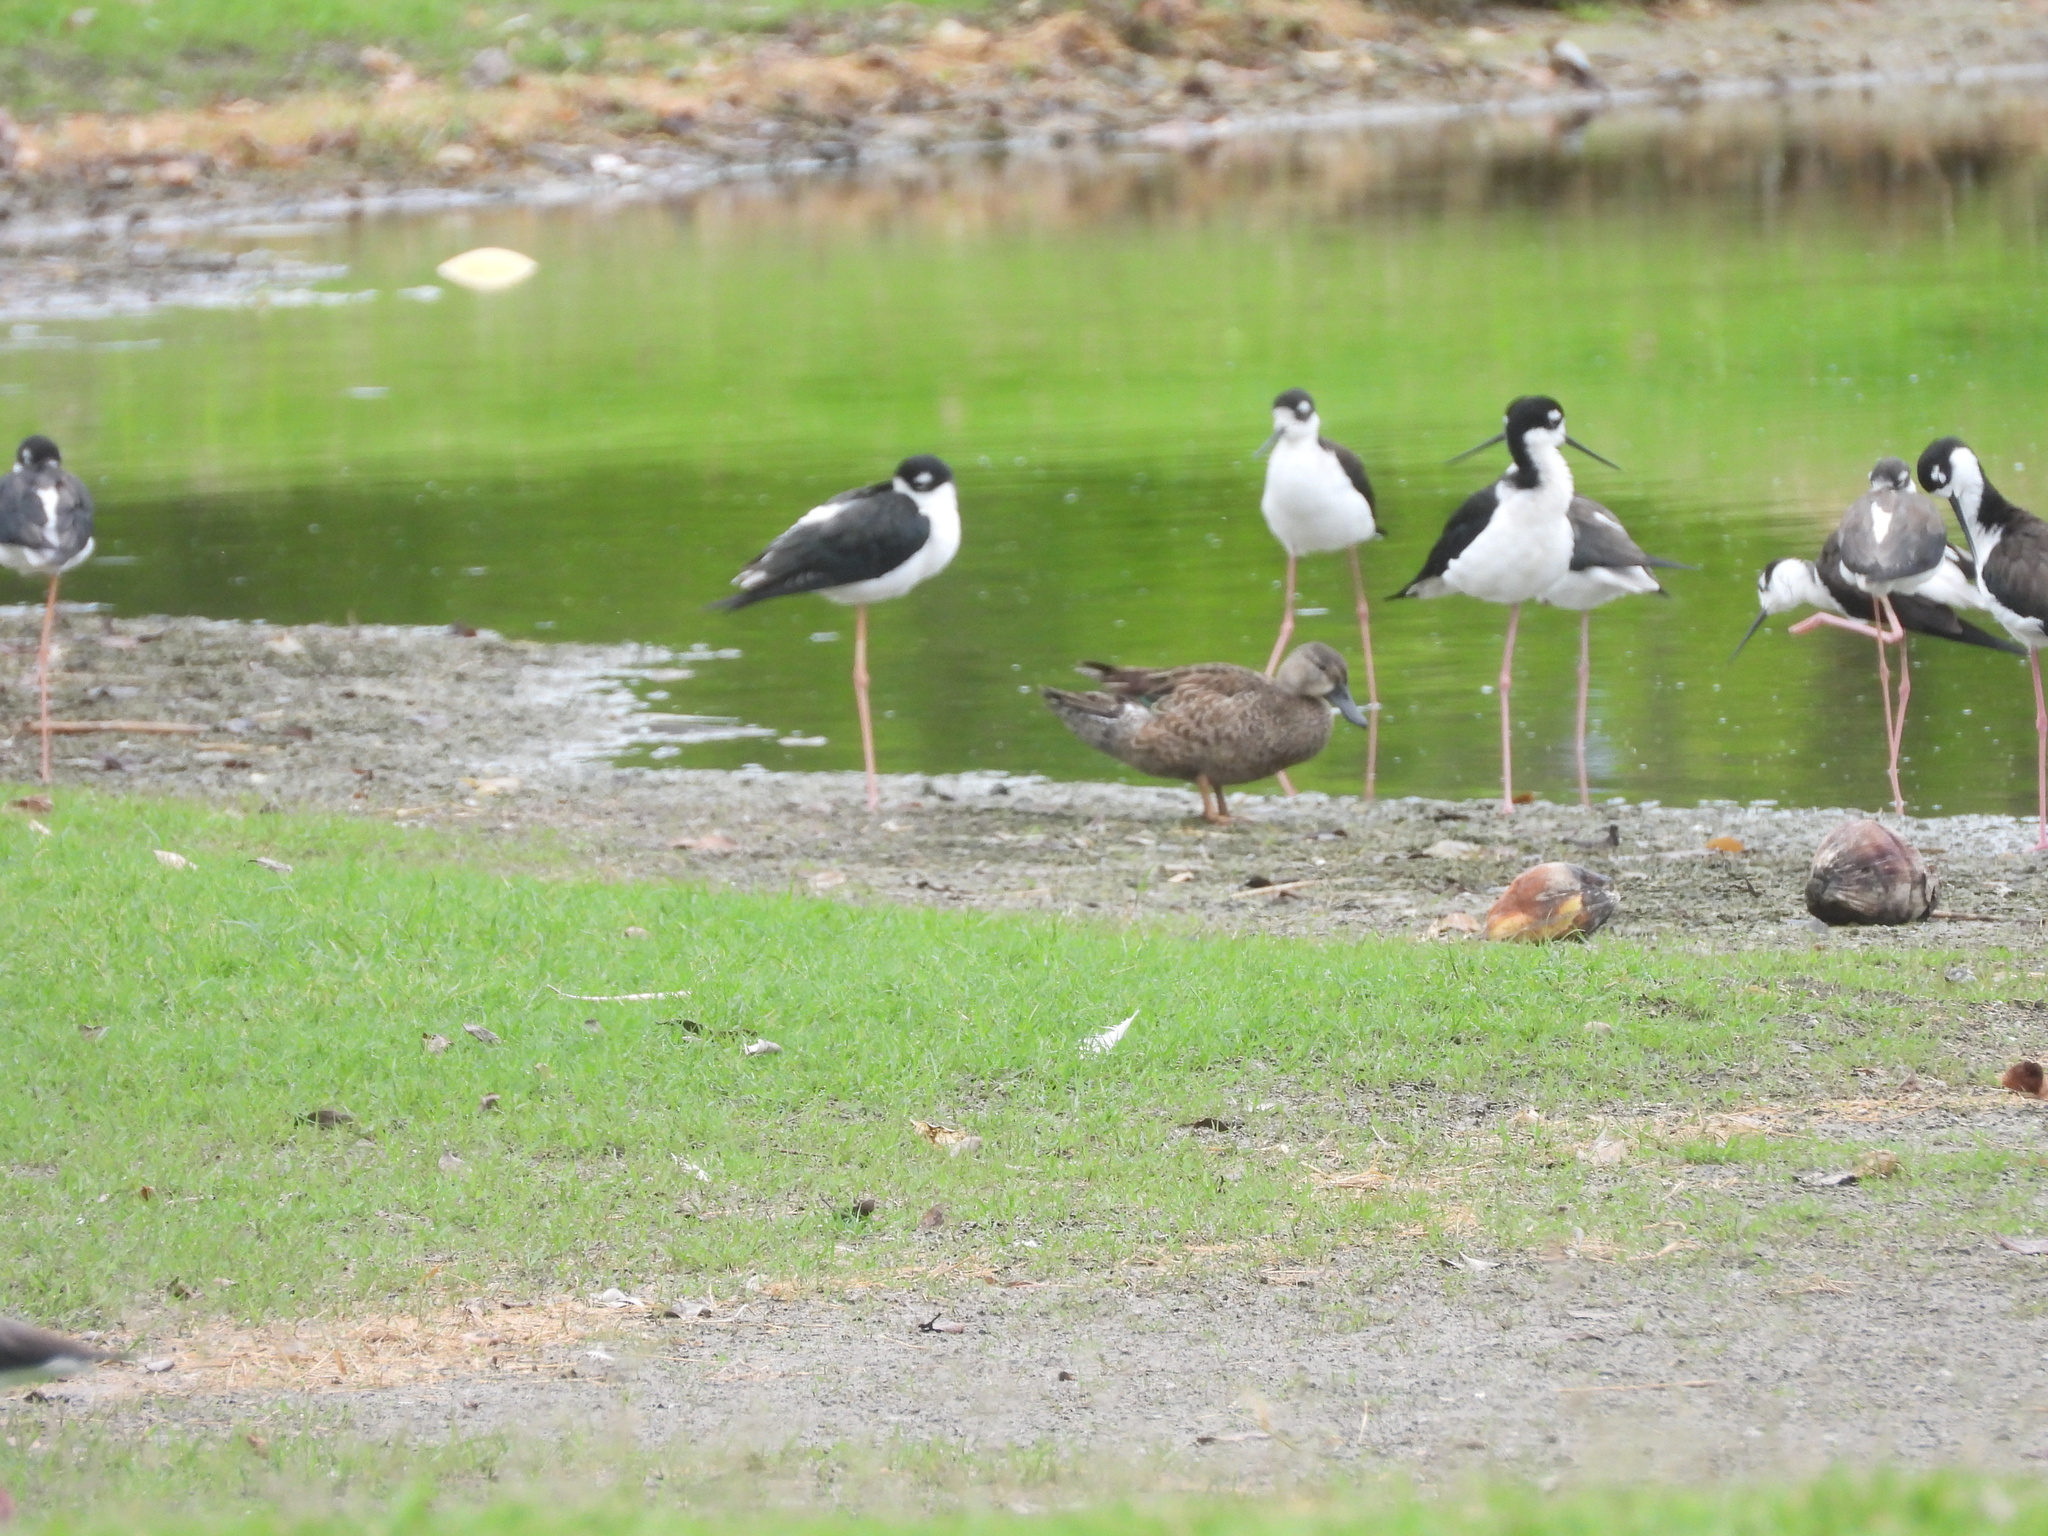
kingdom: Animalia
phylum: Chordata
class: Aves
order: Anseriformes
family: Anatidae
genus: Spatula
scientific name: Spatula discors
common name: Blue-winged teal
